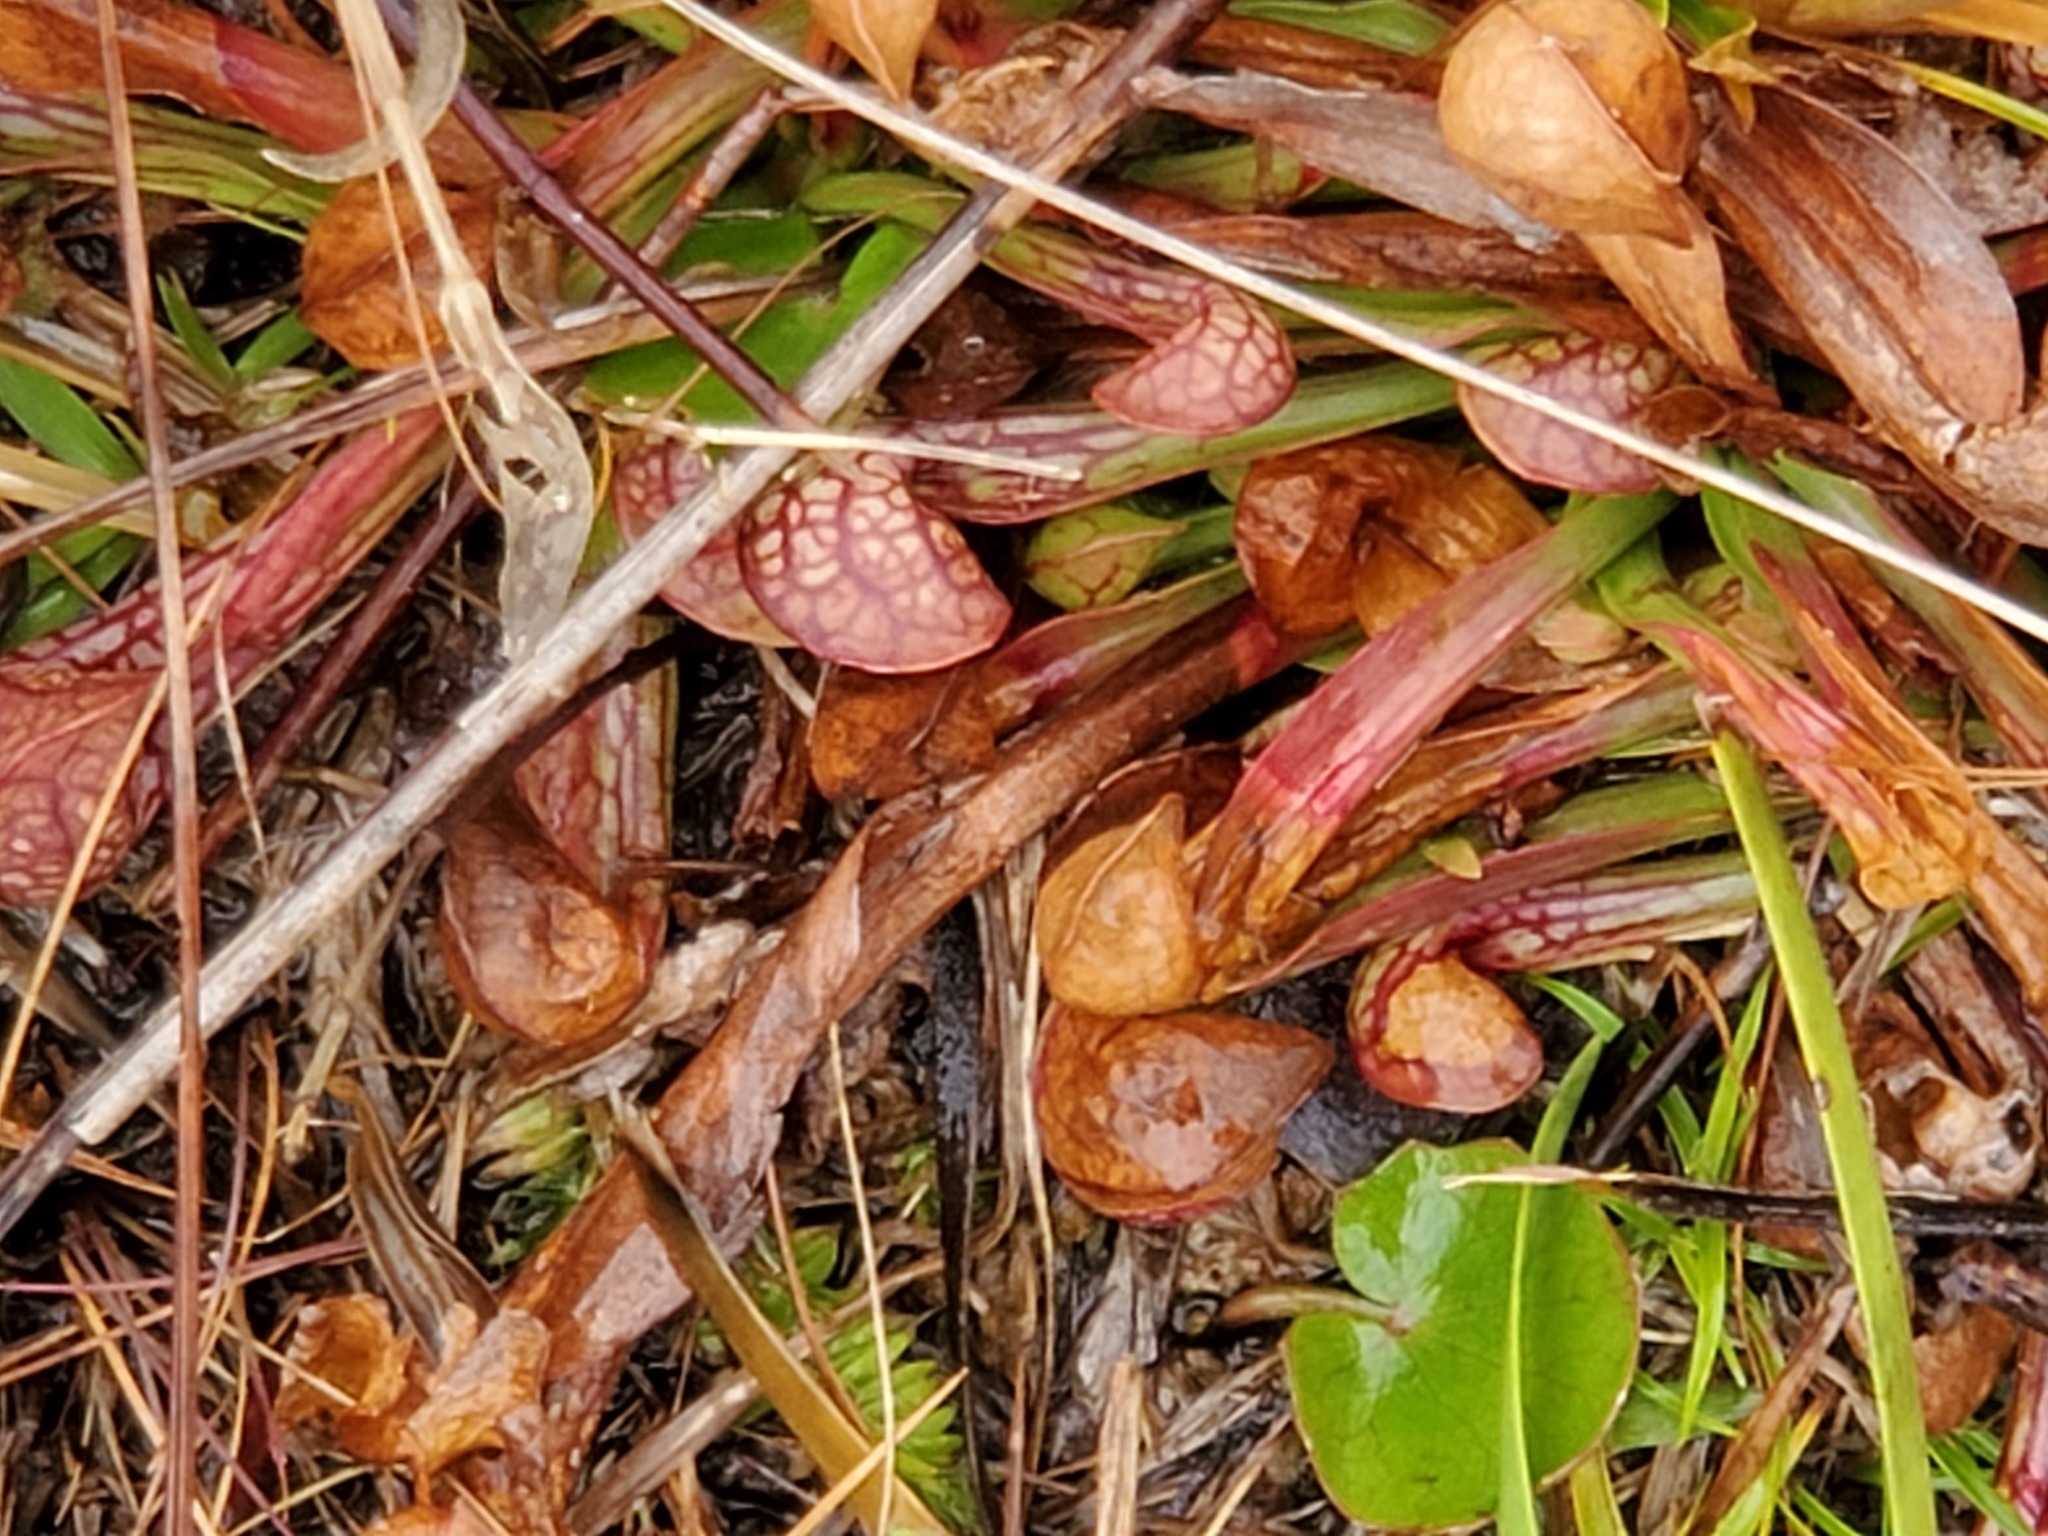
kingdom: Plantae
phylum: Tracheophyta
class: Magnoliopsida
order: Ericales
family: Sarraceniaceae
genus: Sarracenia
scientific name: Sarracenia psittacina
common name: Parrot pitcherplant
